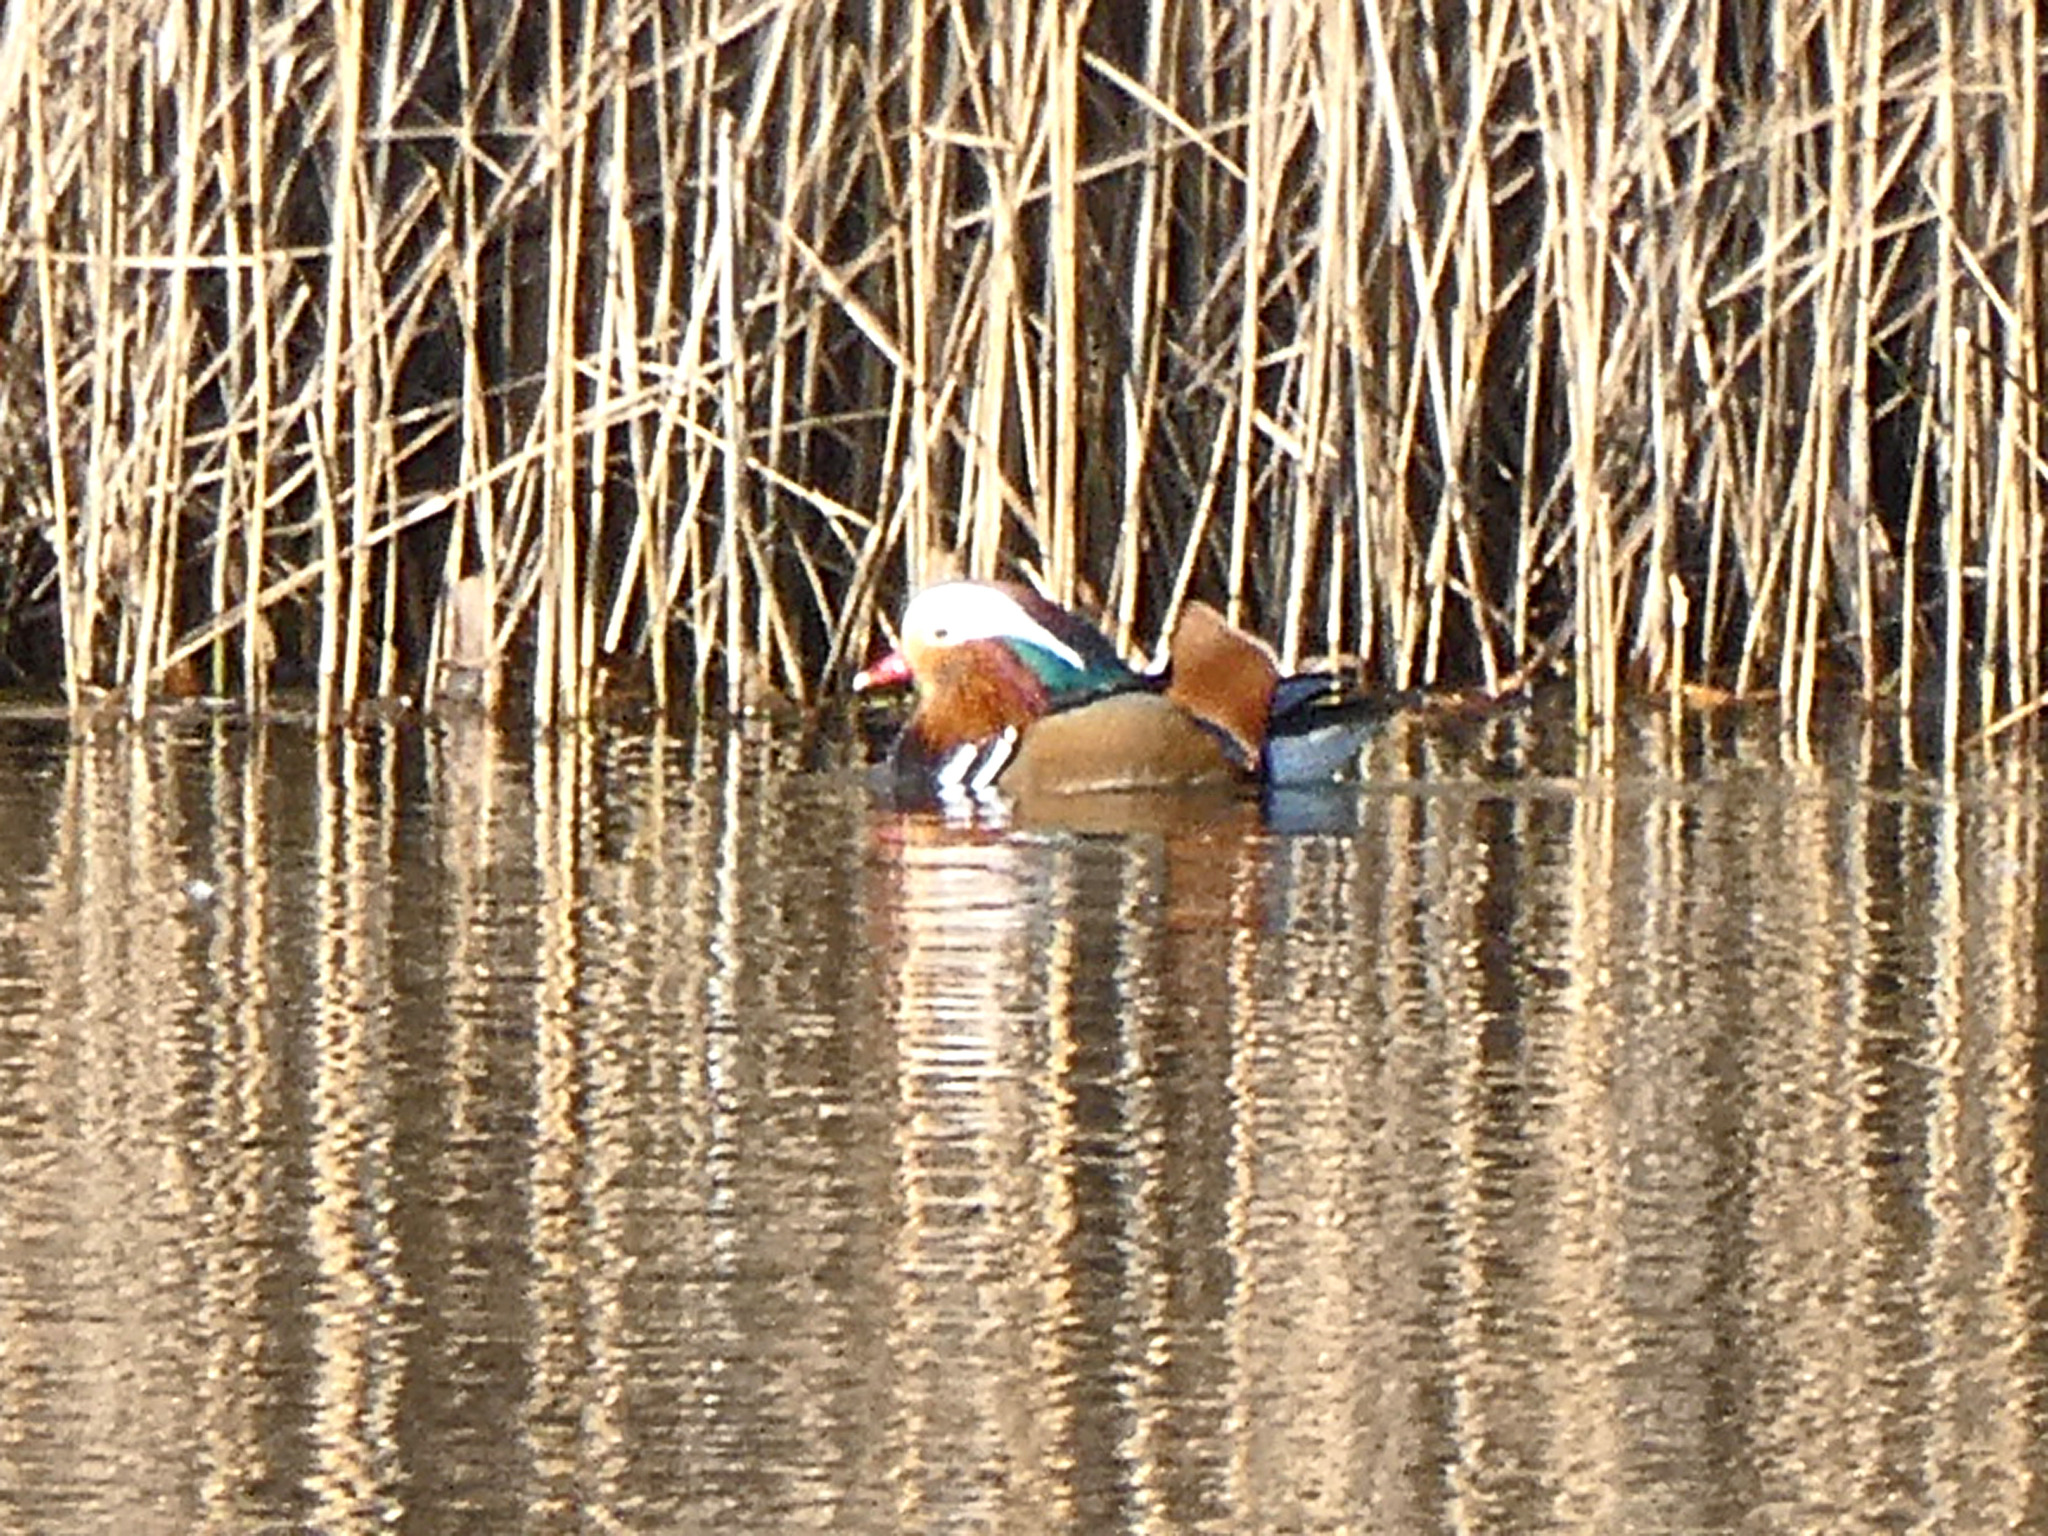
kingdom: Animalia
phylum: Chordata
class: Aves
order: Anseriformes
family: Anatidae
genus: Aix
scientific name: Aix galericulata
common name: Mandarin duck
